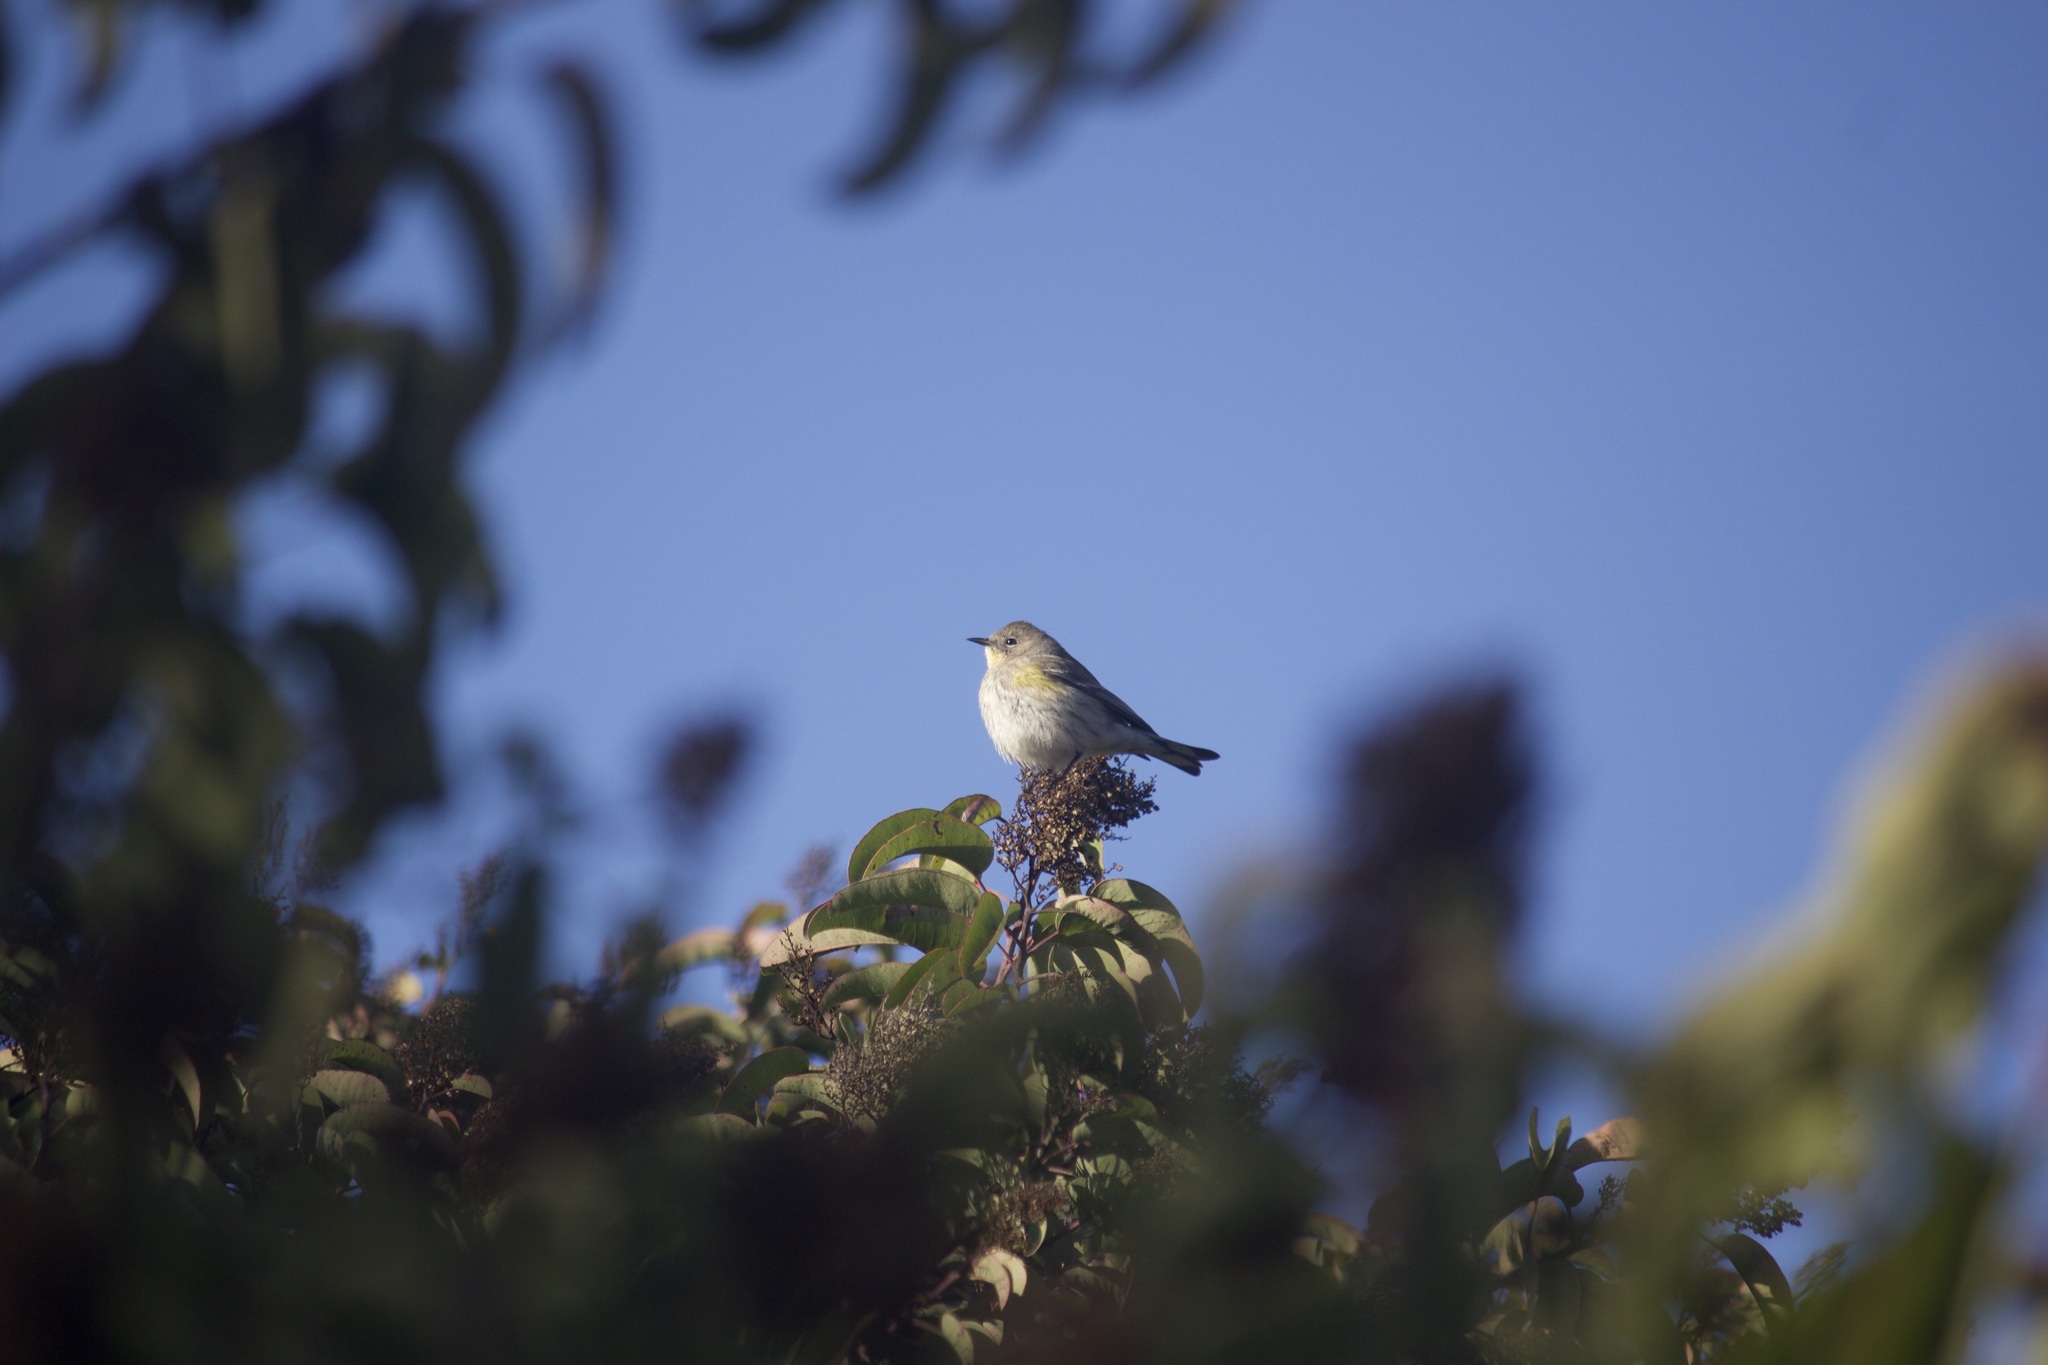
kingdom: Animalia
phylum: Chordata
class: Aves
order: Passeriformes
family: Parulidae
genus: Setophaga
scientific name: Setophaga coronata
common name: Myrtle warbler
